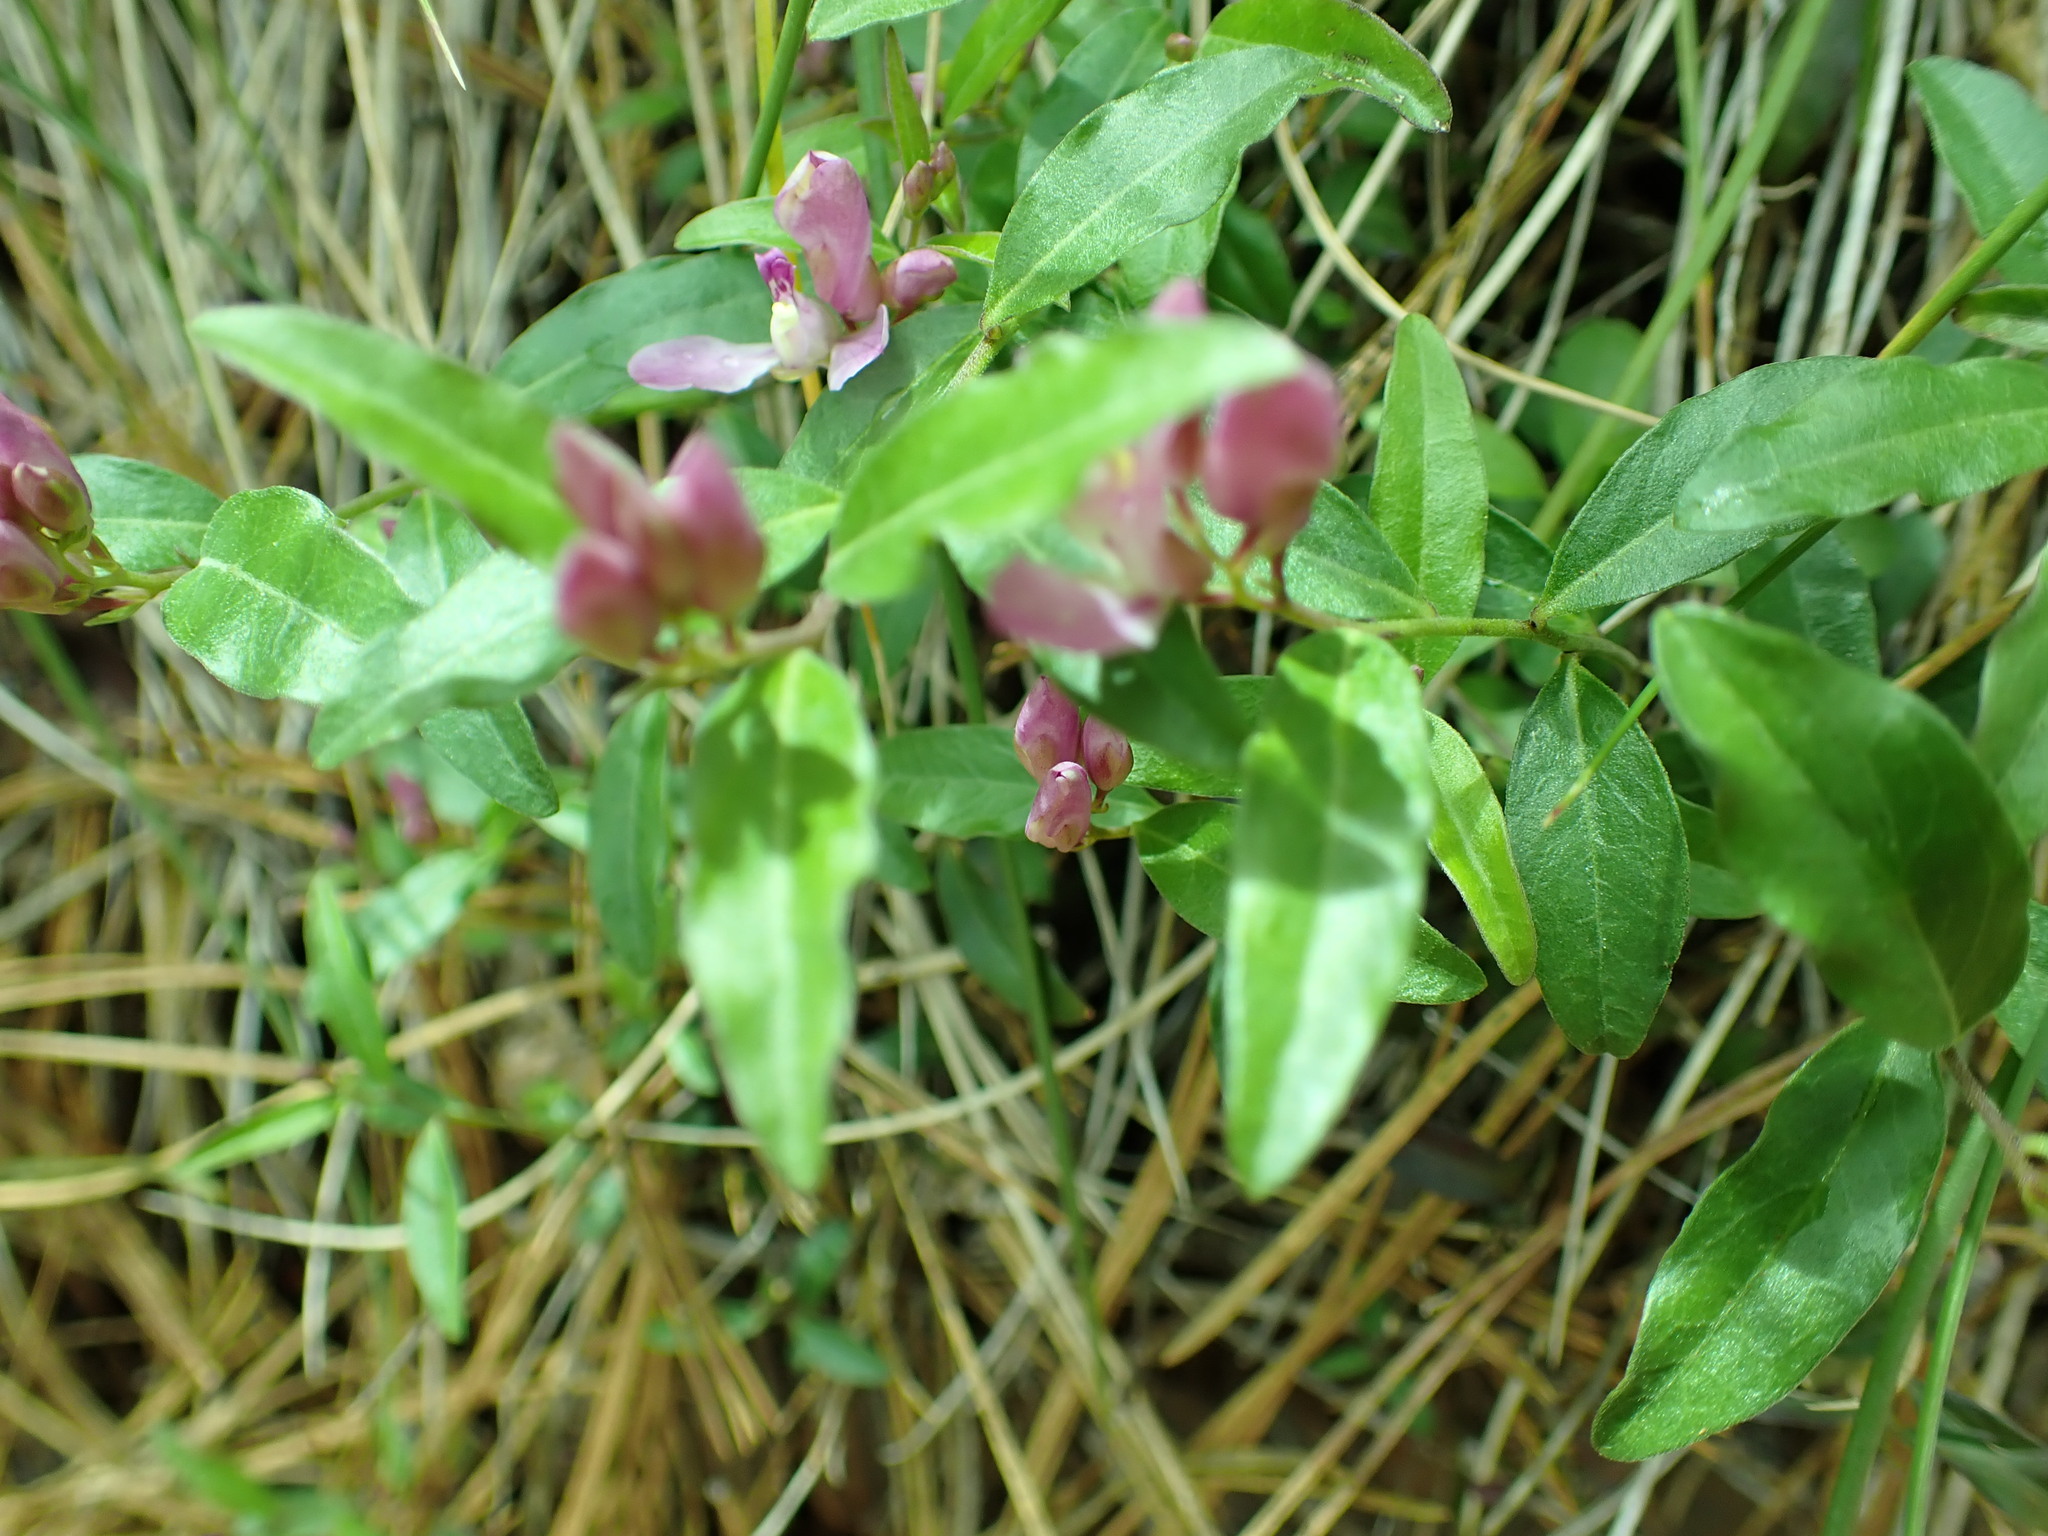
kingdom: Plantae
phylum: Tracheophyta
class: Magnoliopsida
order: Fabales
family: Polygalaceae
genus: Rhinotropis
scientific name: Rhinotropis californica
